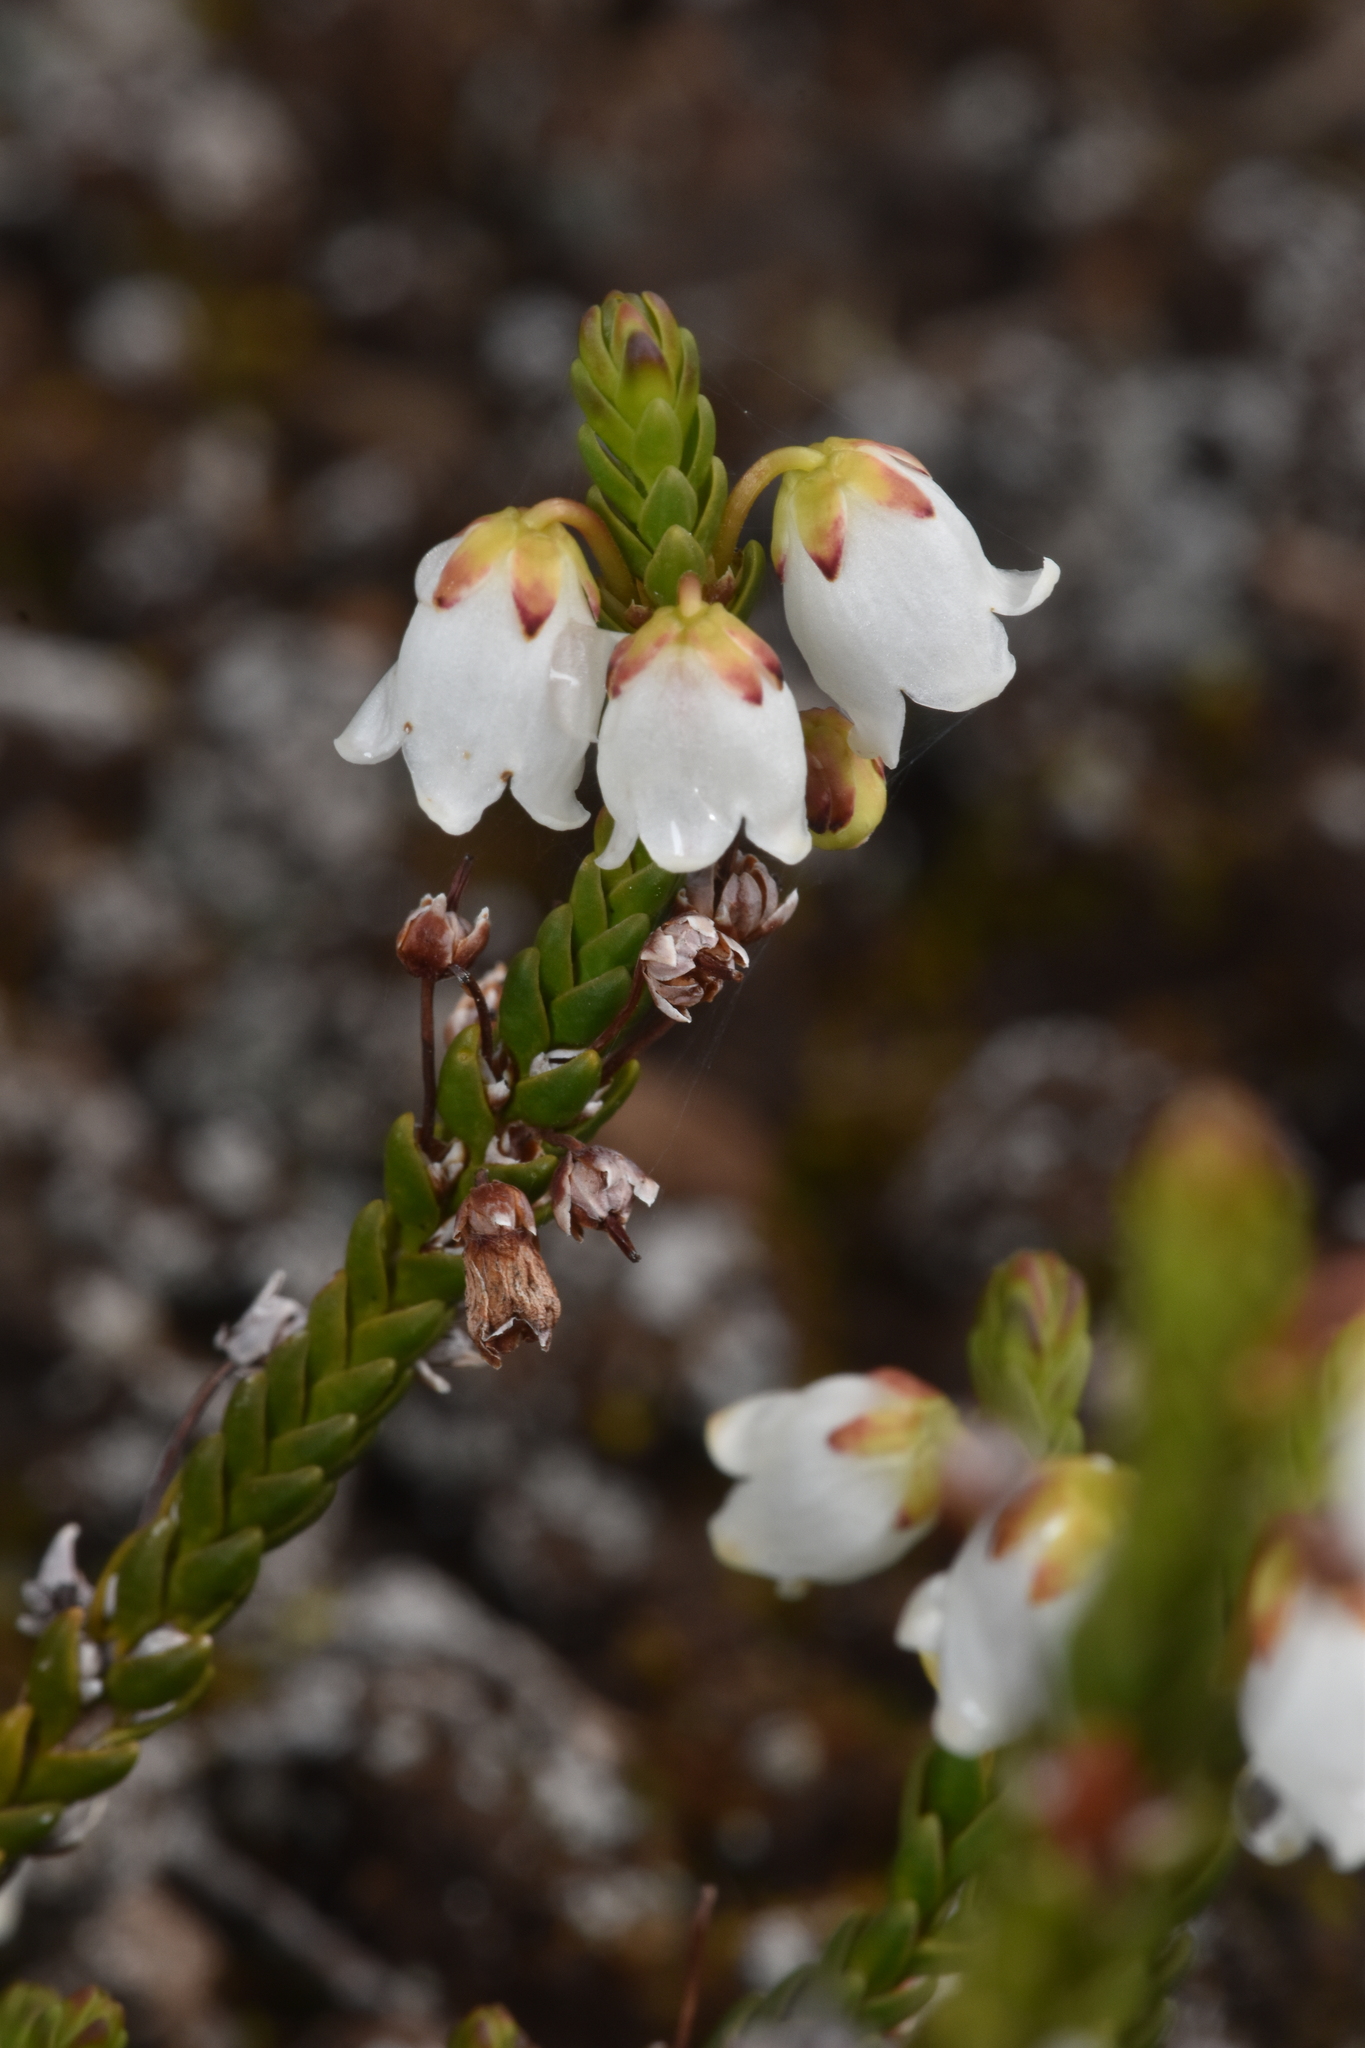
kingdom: Plantae
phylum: Tracheophyta
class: Magnoliopsida
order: Ericales
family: Ericaceae
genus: Cassiope
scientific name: Cassiope mertensiana
